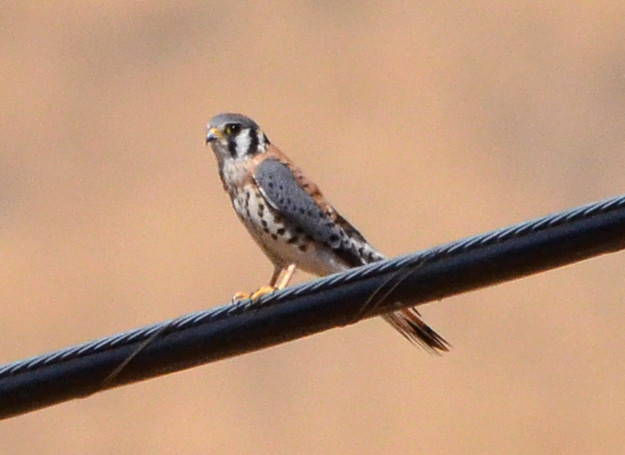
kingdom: Animalia
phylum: Chordata
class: Aves
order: Falconiformes
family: Falconidae
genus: Falco
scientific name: Falco sparverius
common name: American kestrel
